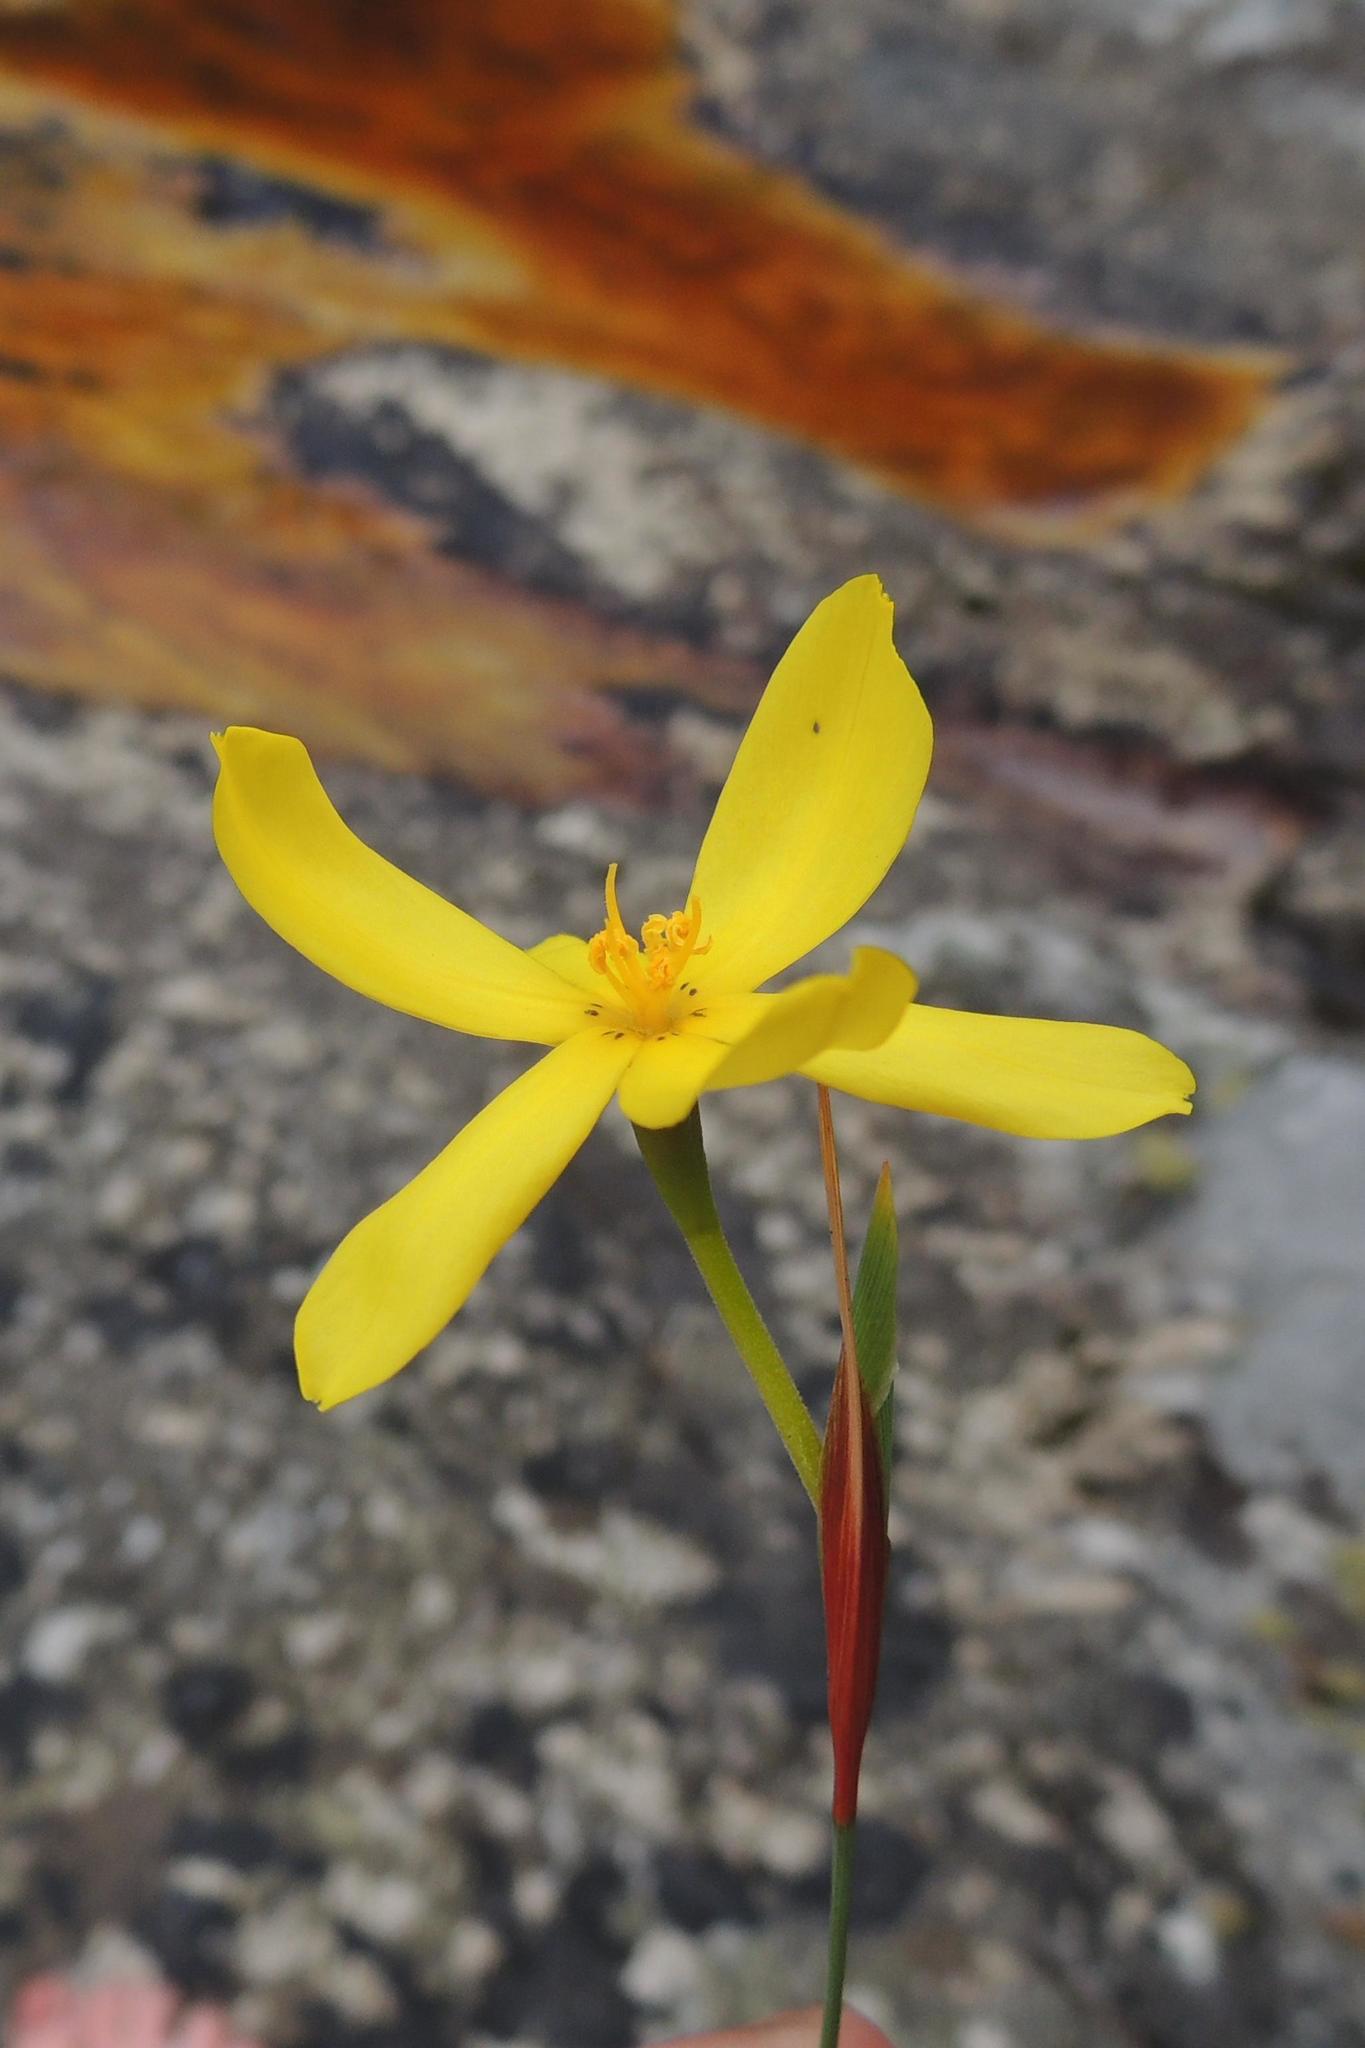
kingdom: Plantae
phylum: Tracheophyta
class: Liliopsida
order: Asparagales
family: Iridaceae
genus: Bobartia
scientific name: Bobartia parva
